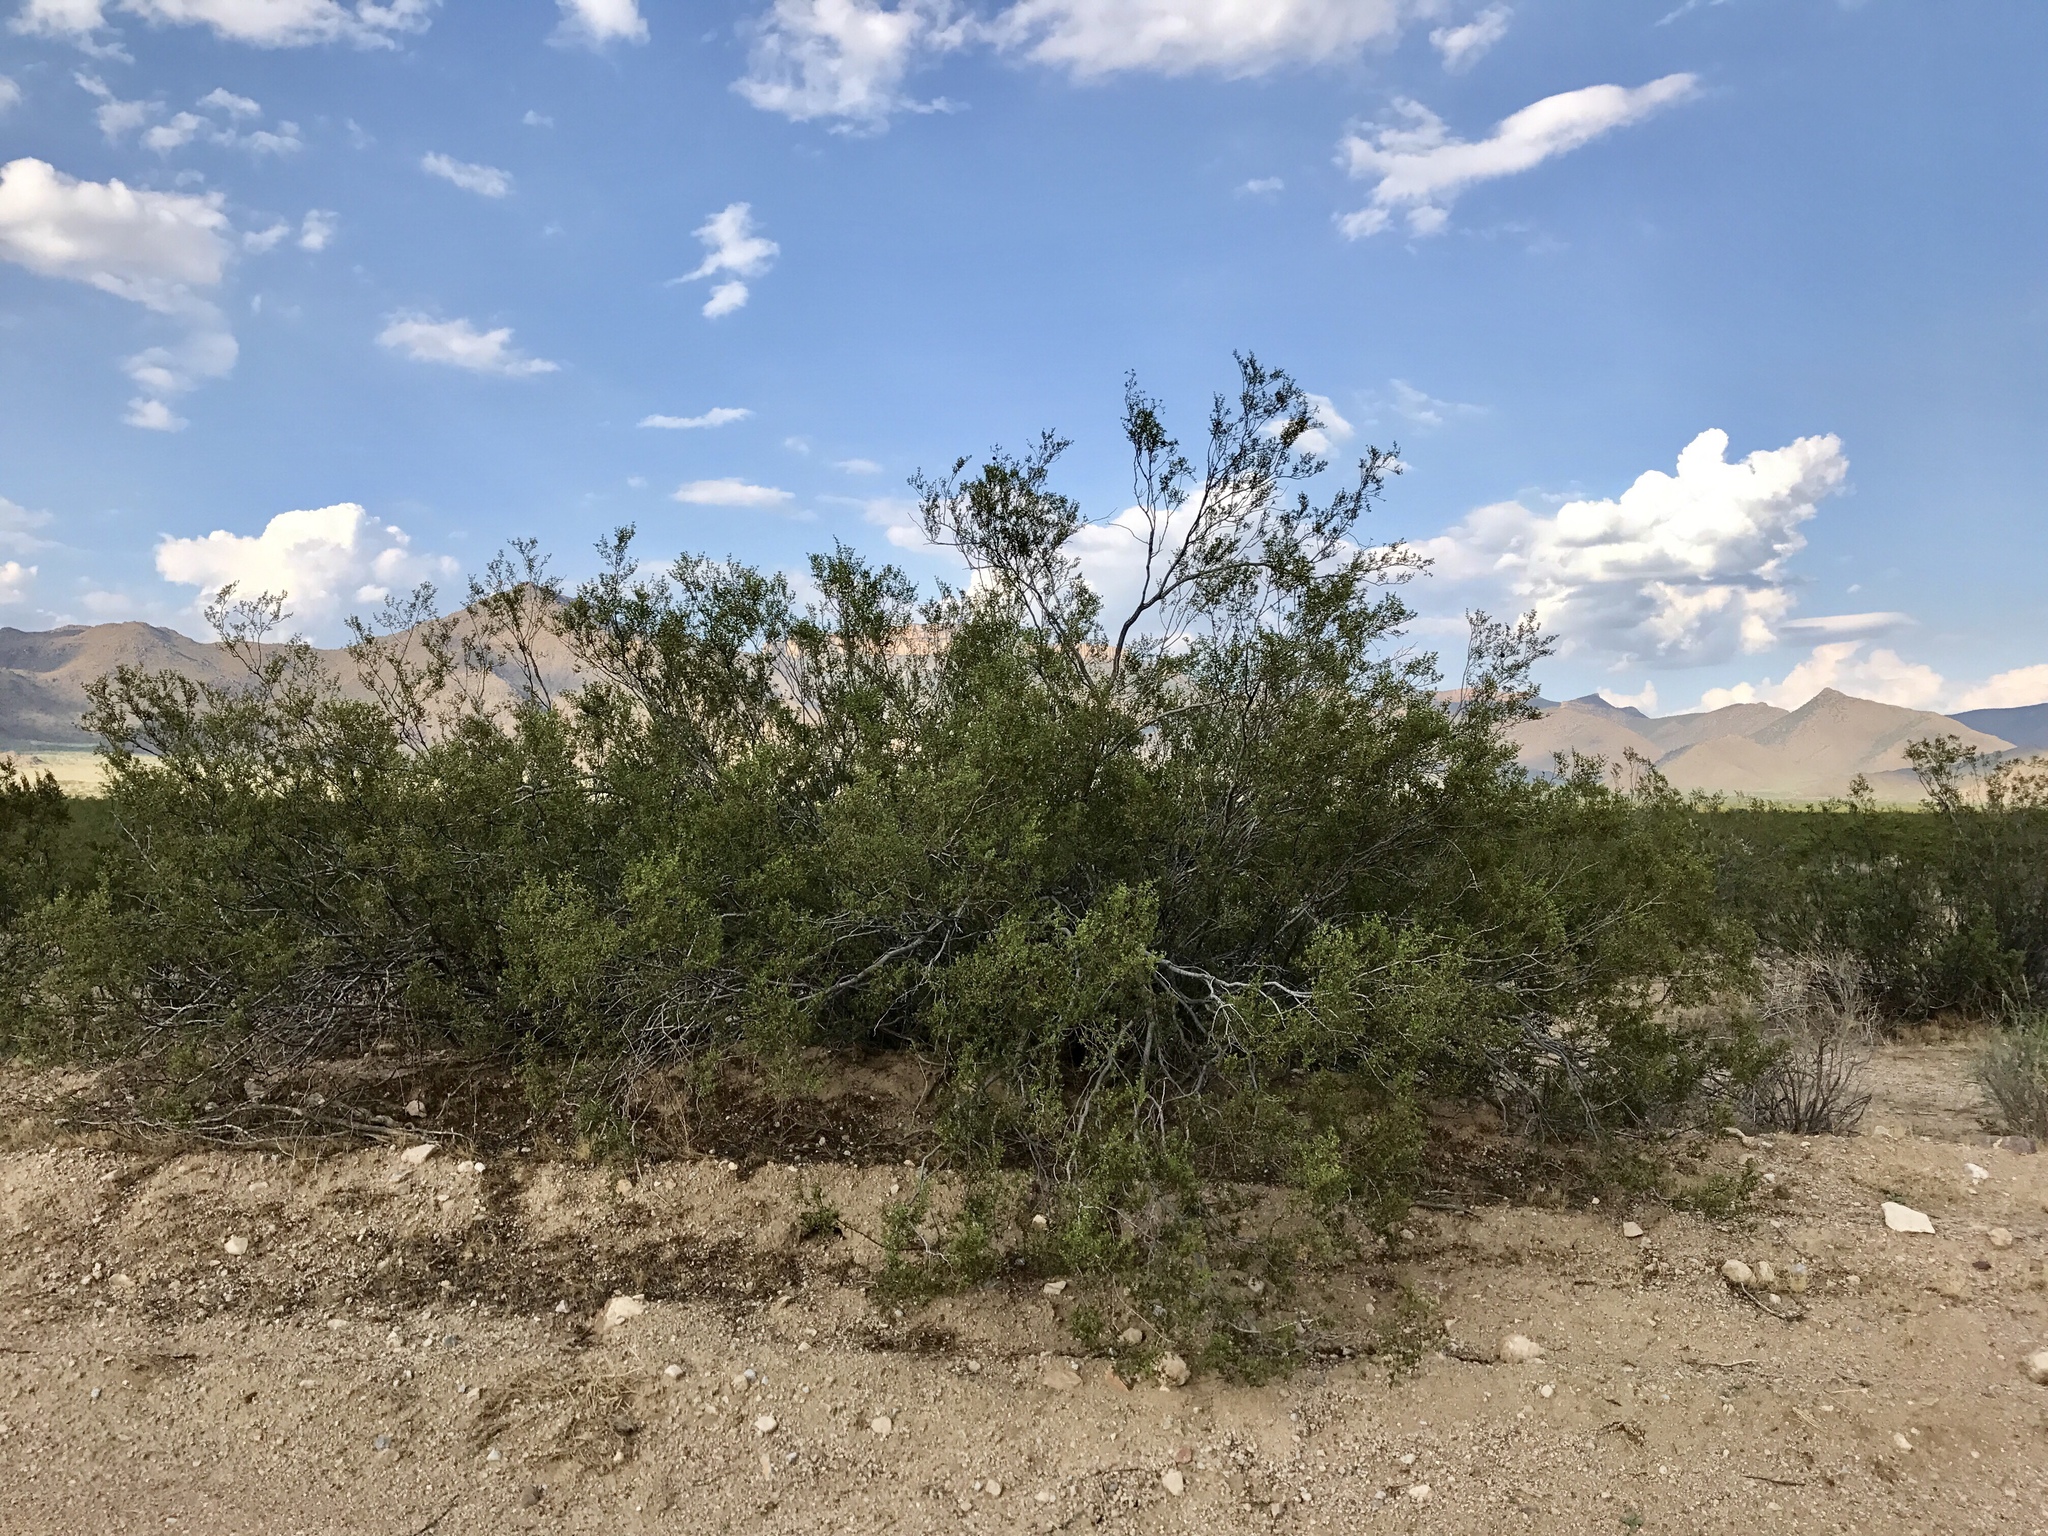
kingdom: Plantae
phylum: Tracheophyta
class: Magnoliopsida
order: Zygophyllales
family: Zygophyllaceae
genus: Larrea
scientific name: Larrea tridentata
